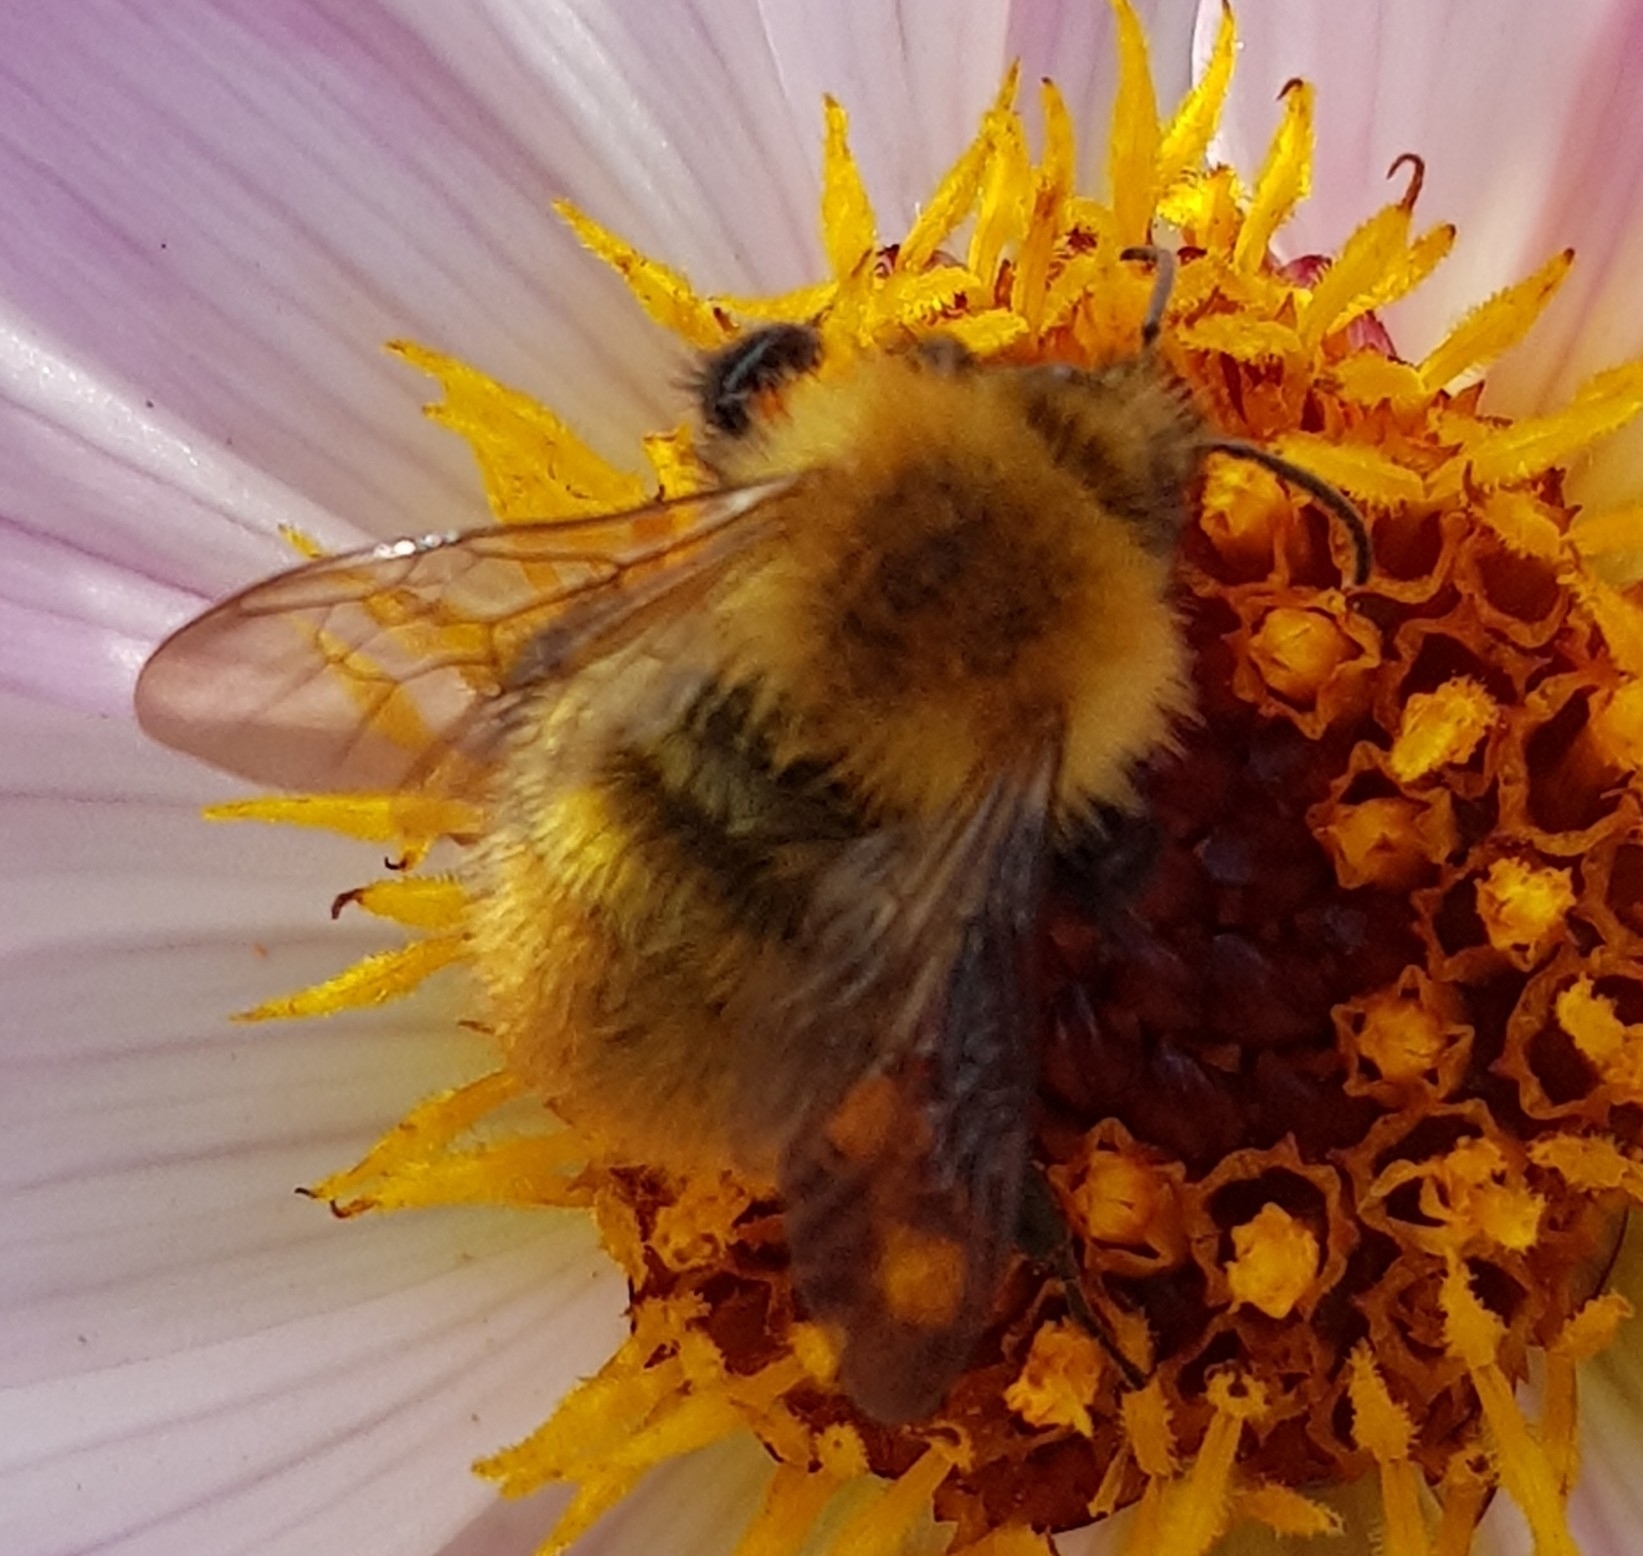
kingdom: Animalia
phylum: Arthropoda
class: Insecta
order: Hymenoptera
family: Apidae
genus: Bombus
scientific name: Bombus pascuorum
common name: Common carder bee
